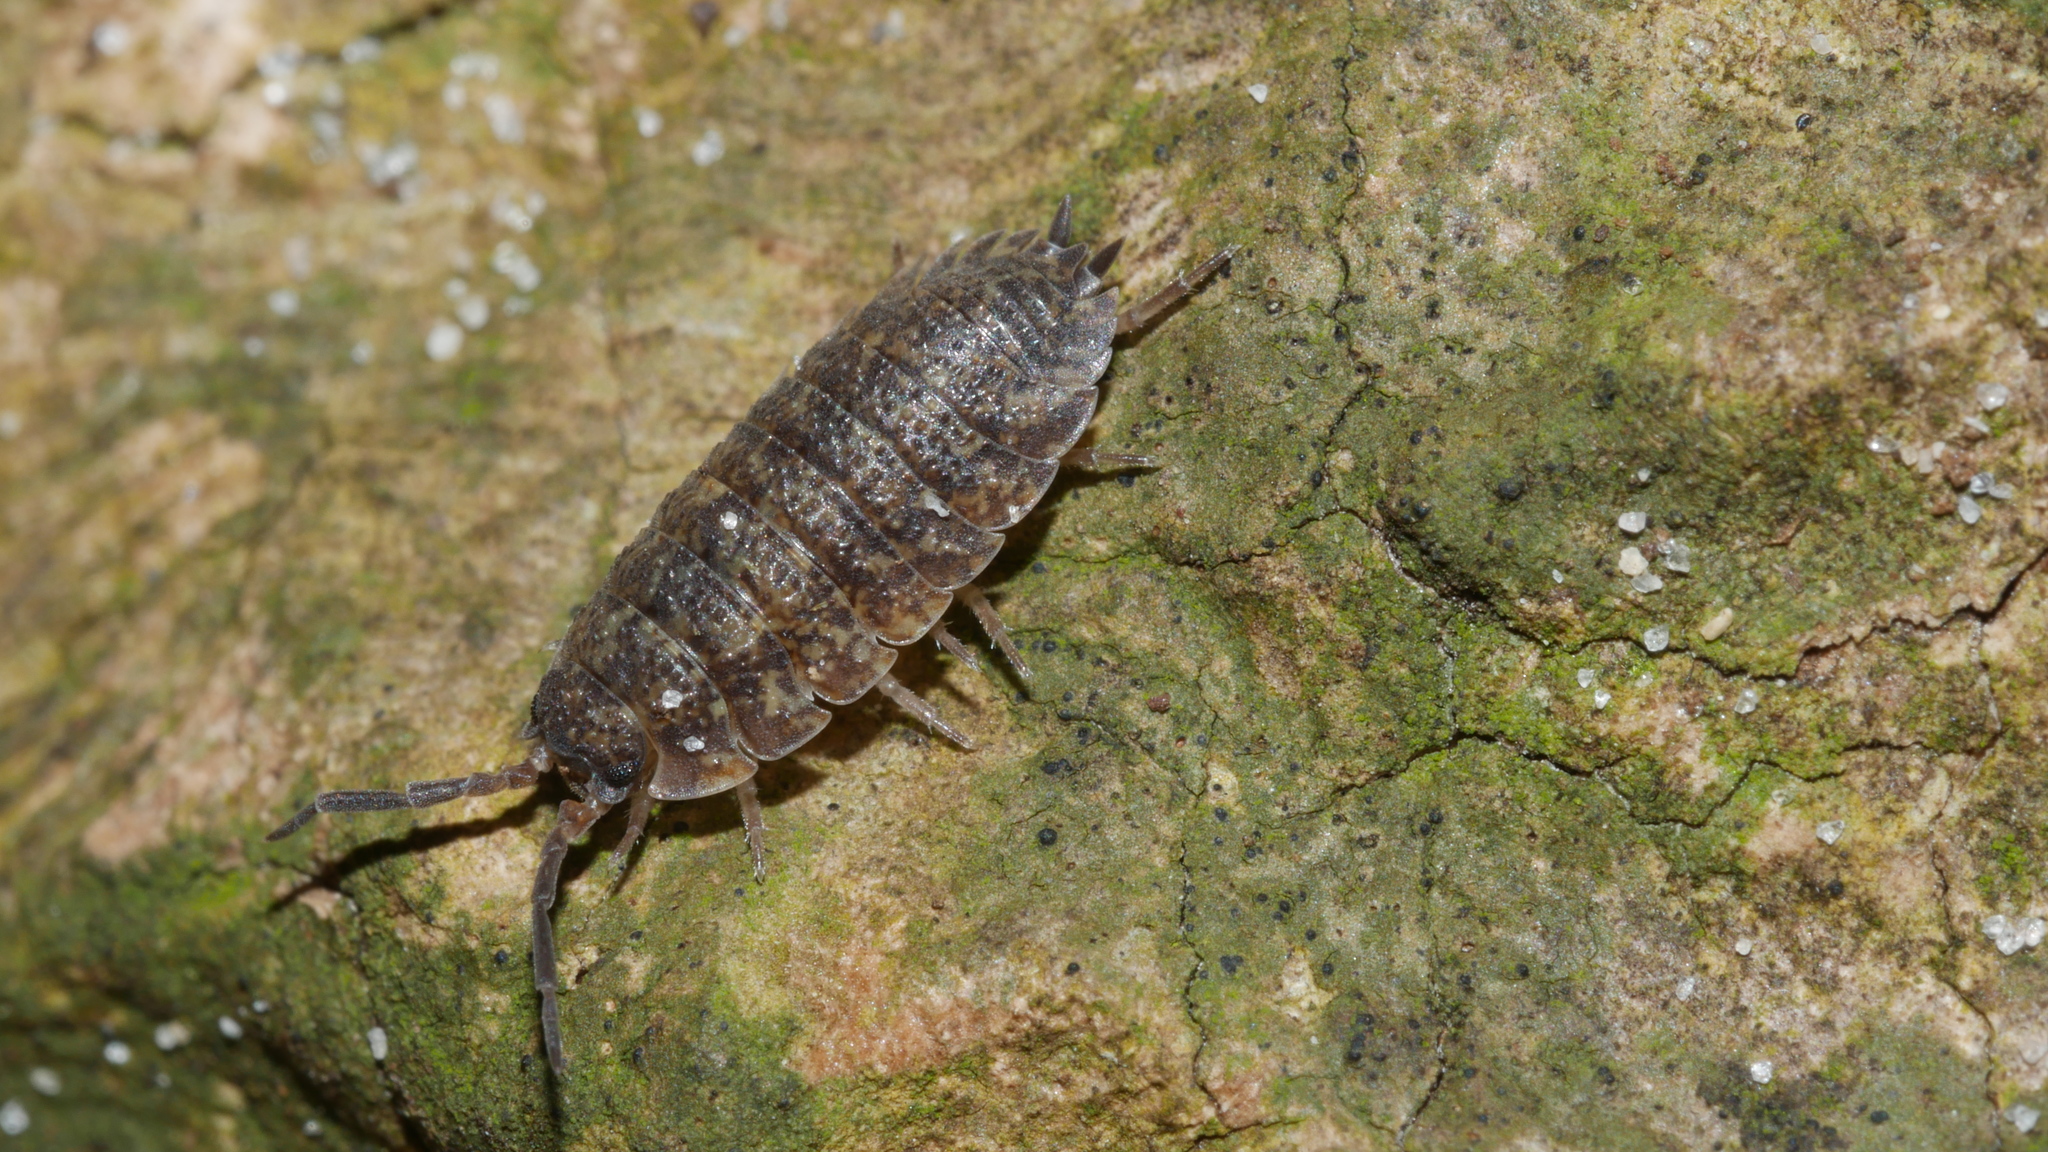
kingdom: Animalia
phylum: Arthropoda
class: Malacostraca
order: Isopoda
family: Porcellionidae
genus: Porcellio
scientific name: Porcellio scaber
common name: Common rough woodlouse
